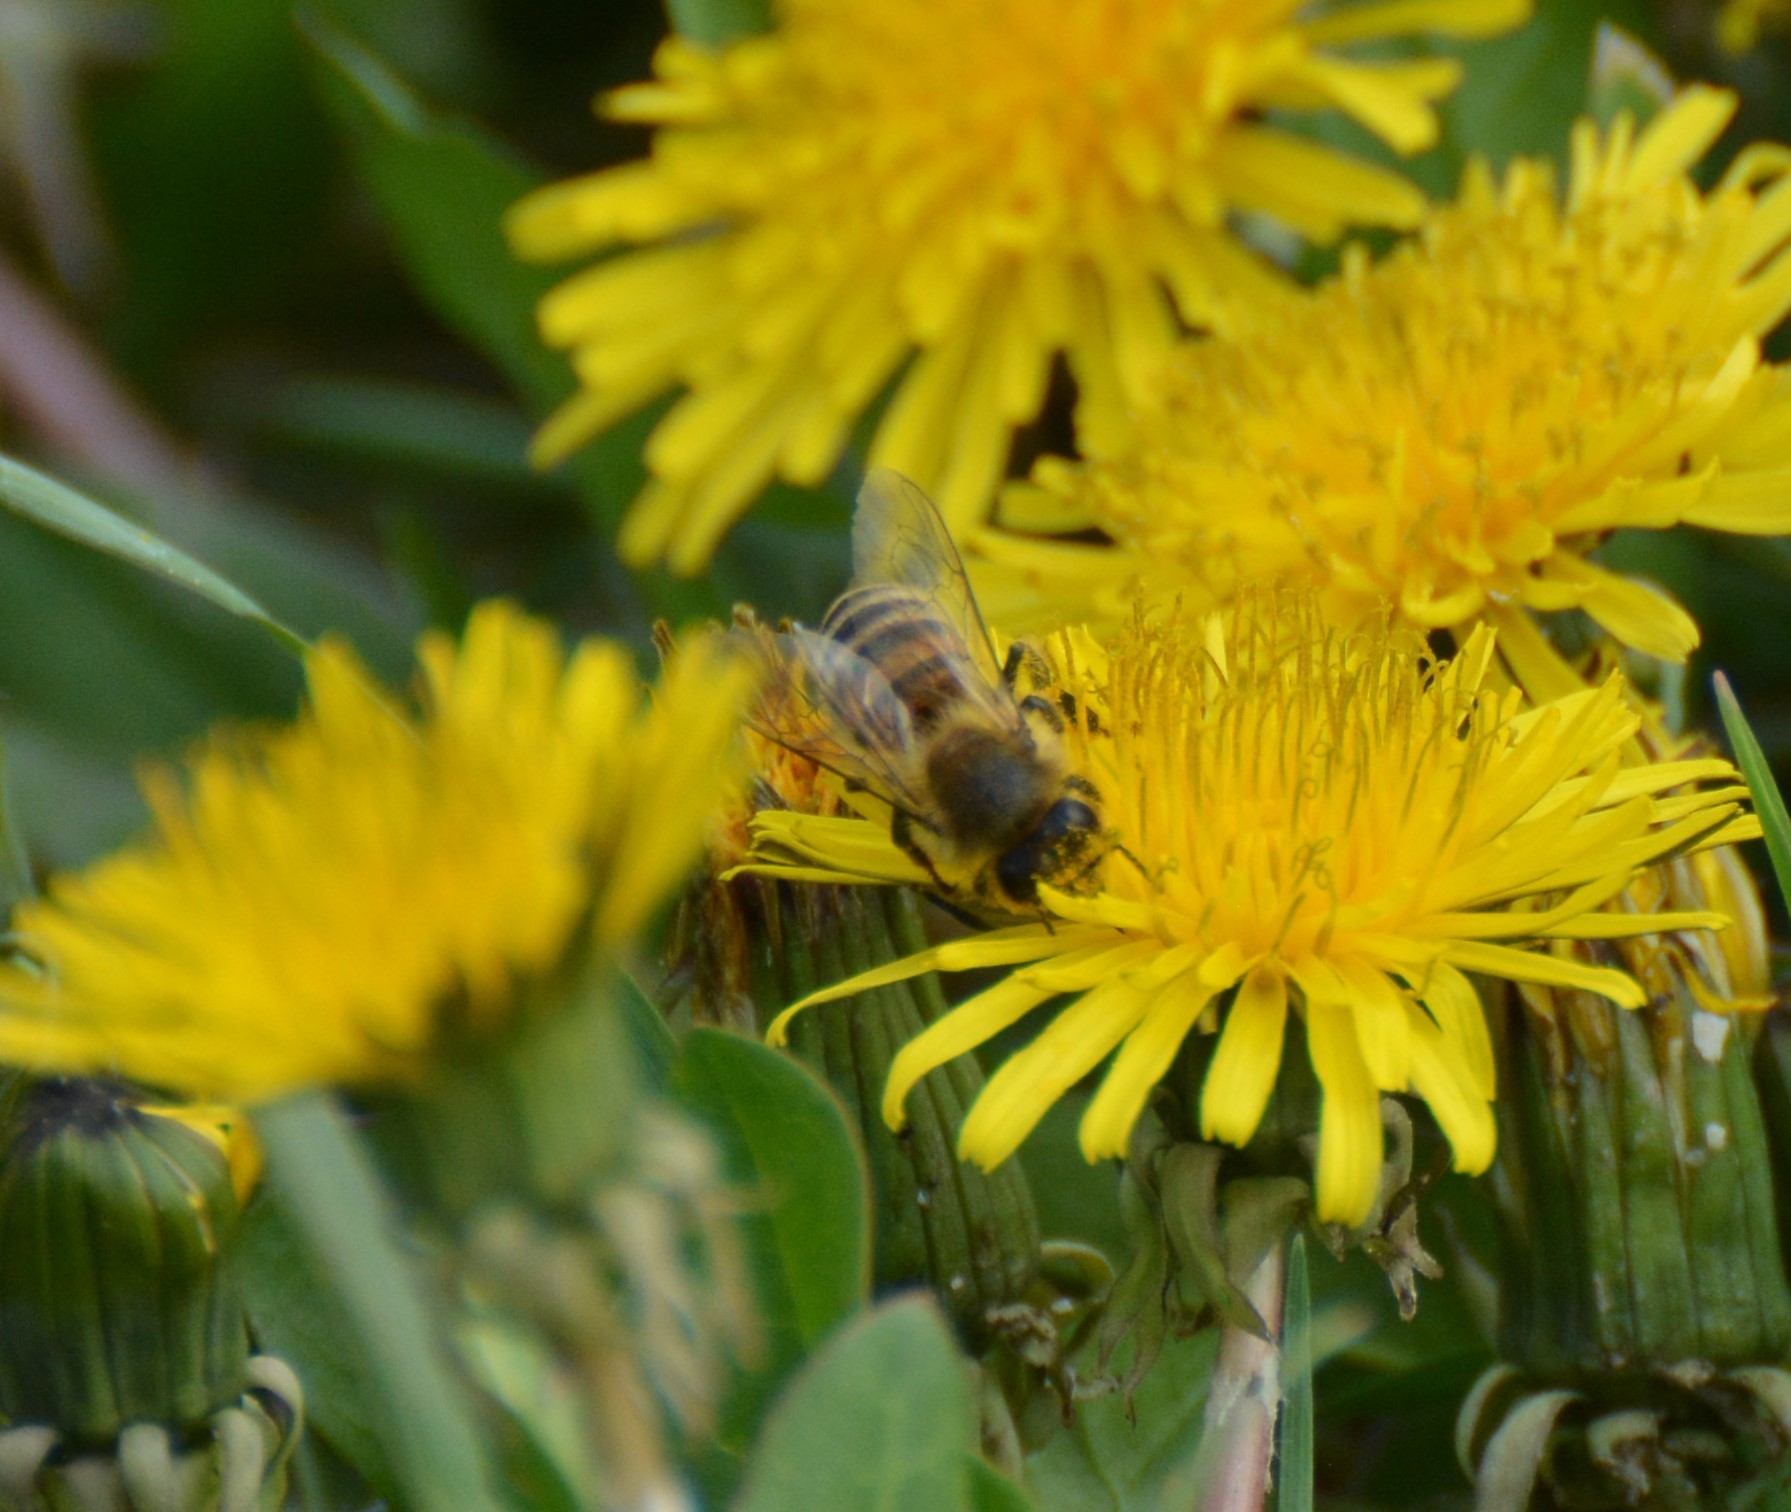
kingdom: Animalia
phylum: Arthropoda
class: Insecta
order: Hymenoptera
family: Apidae
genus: Apis
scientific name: Apis mellifera
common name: Honey bee
